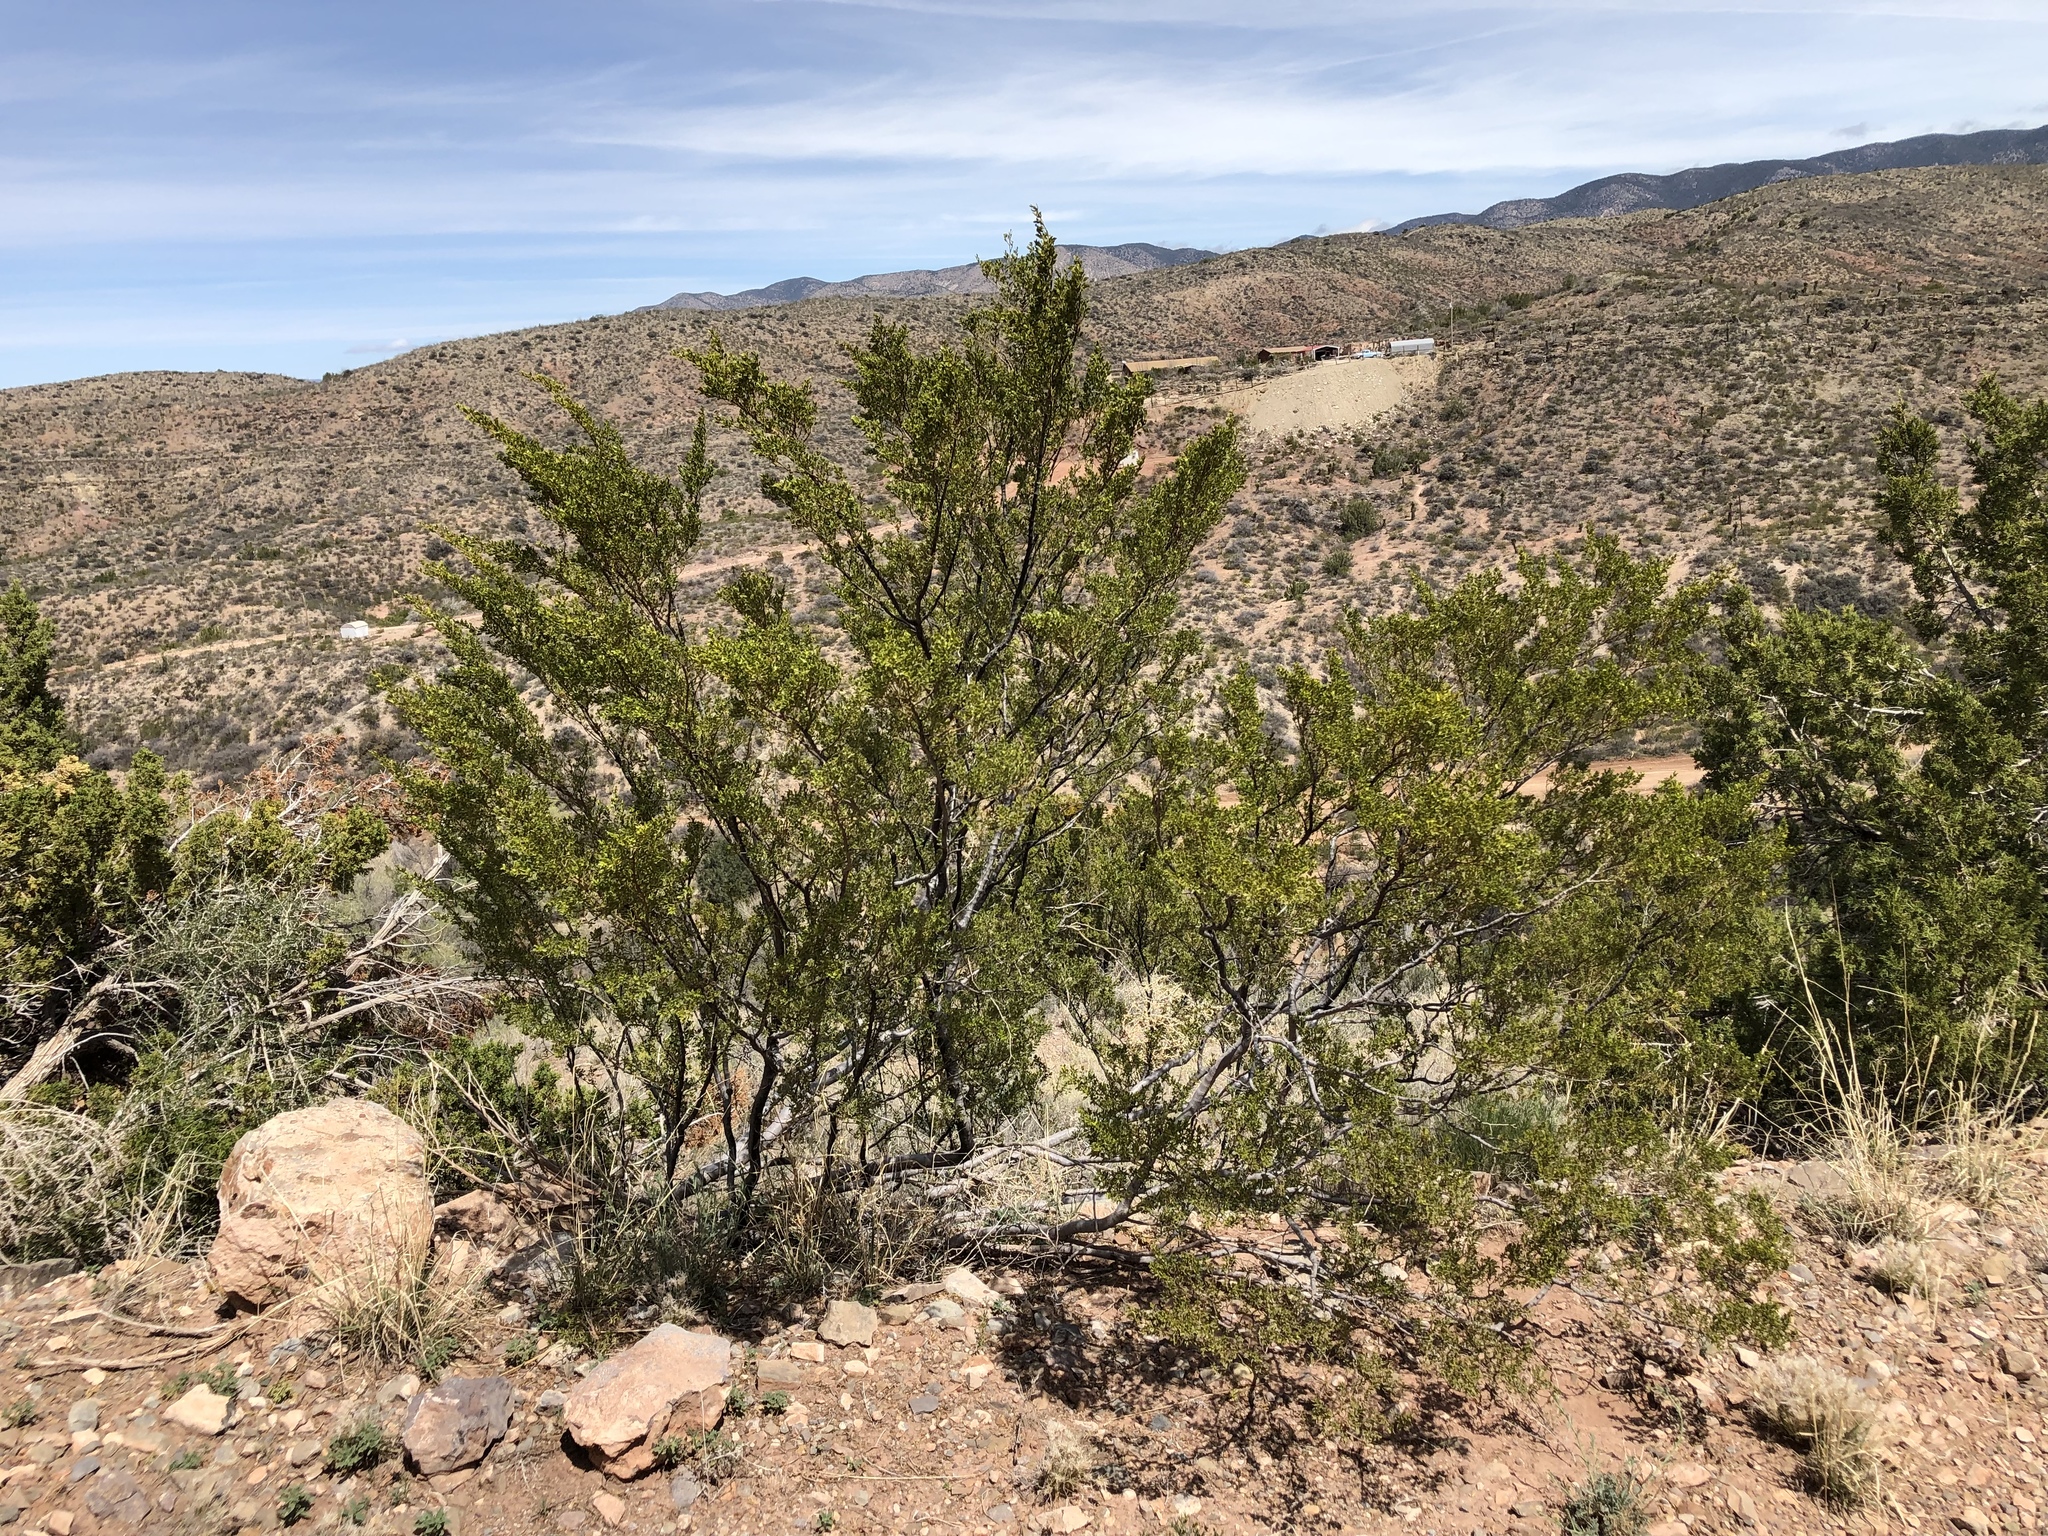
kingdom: Plantae
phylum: Tracheophyta
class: Magnoliopsida
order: Zygophyllales
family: Zygophyllaceae
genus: Larrea
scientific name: Larrea tridentata
